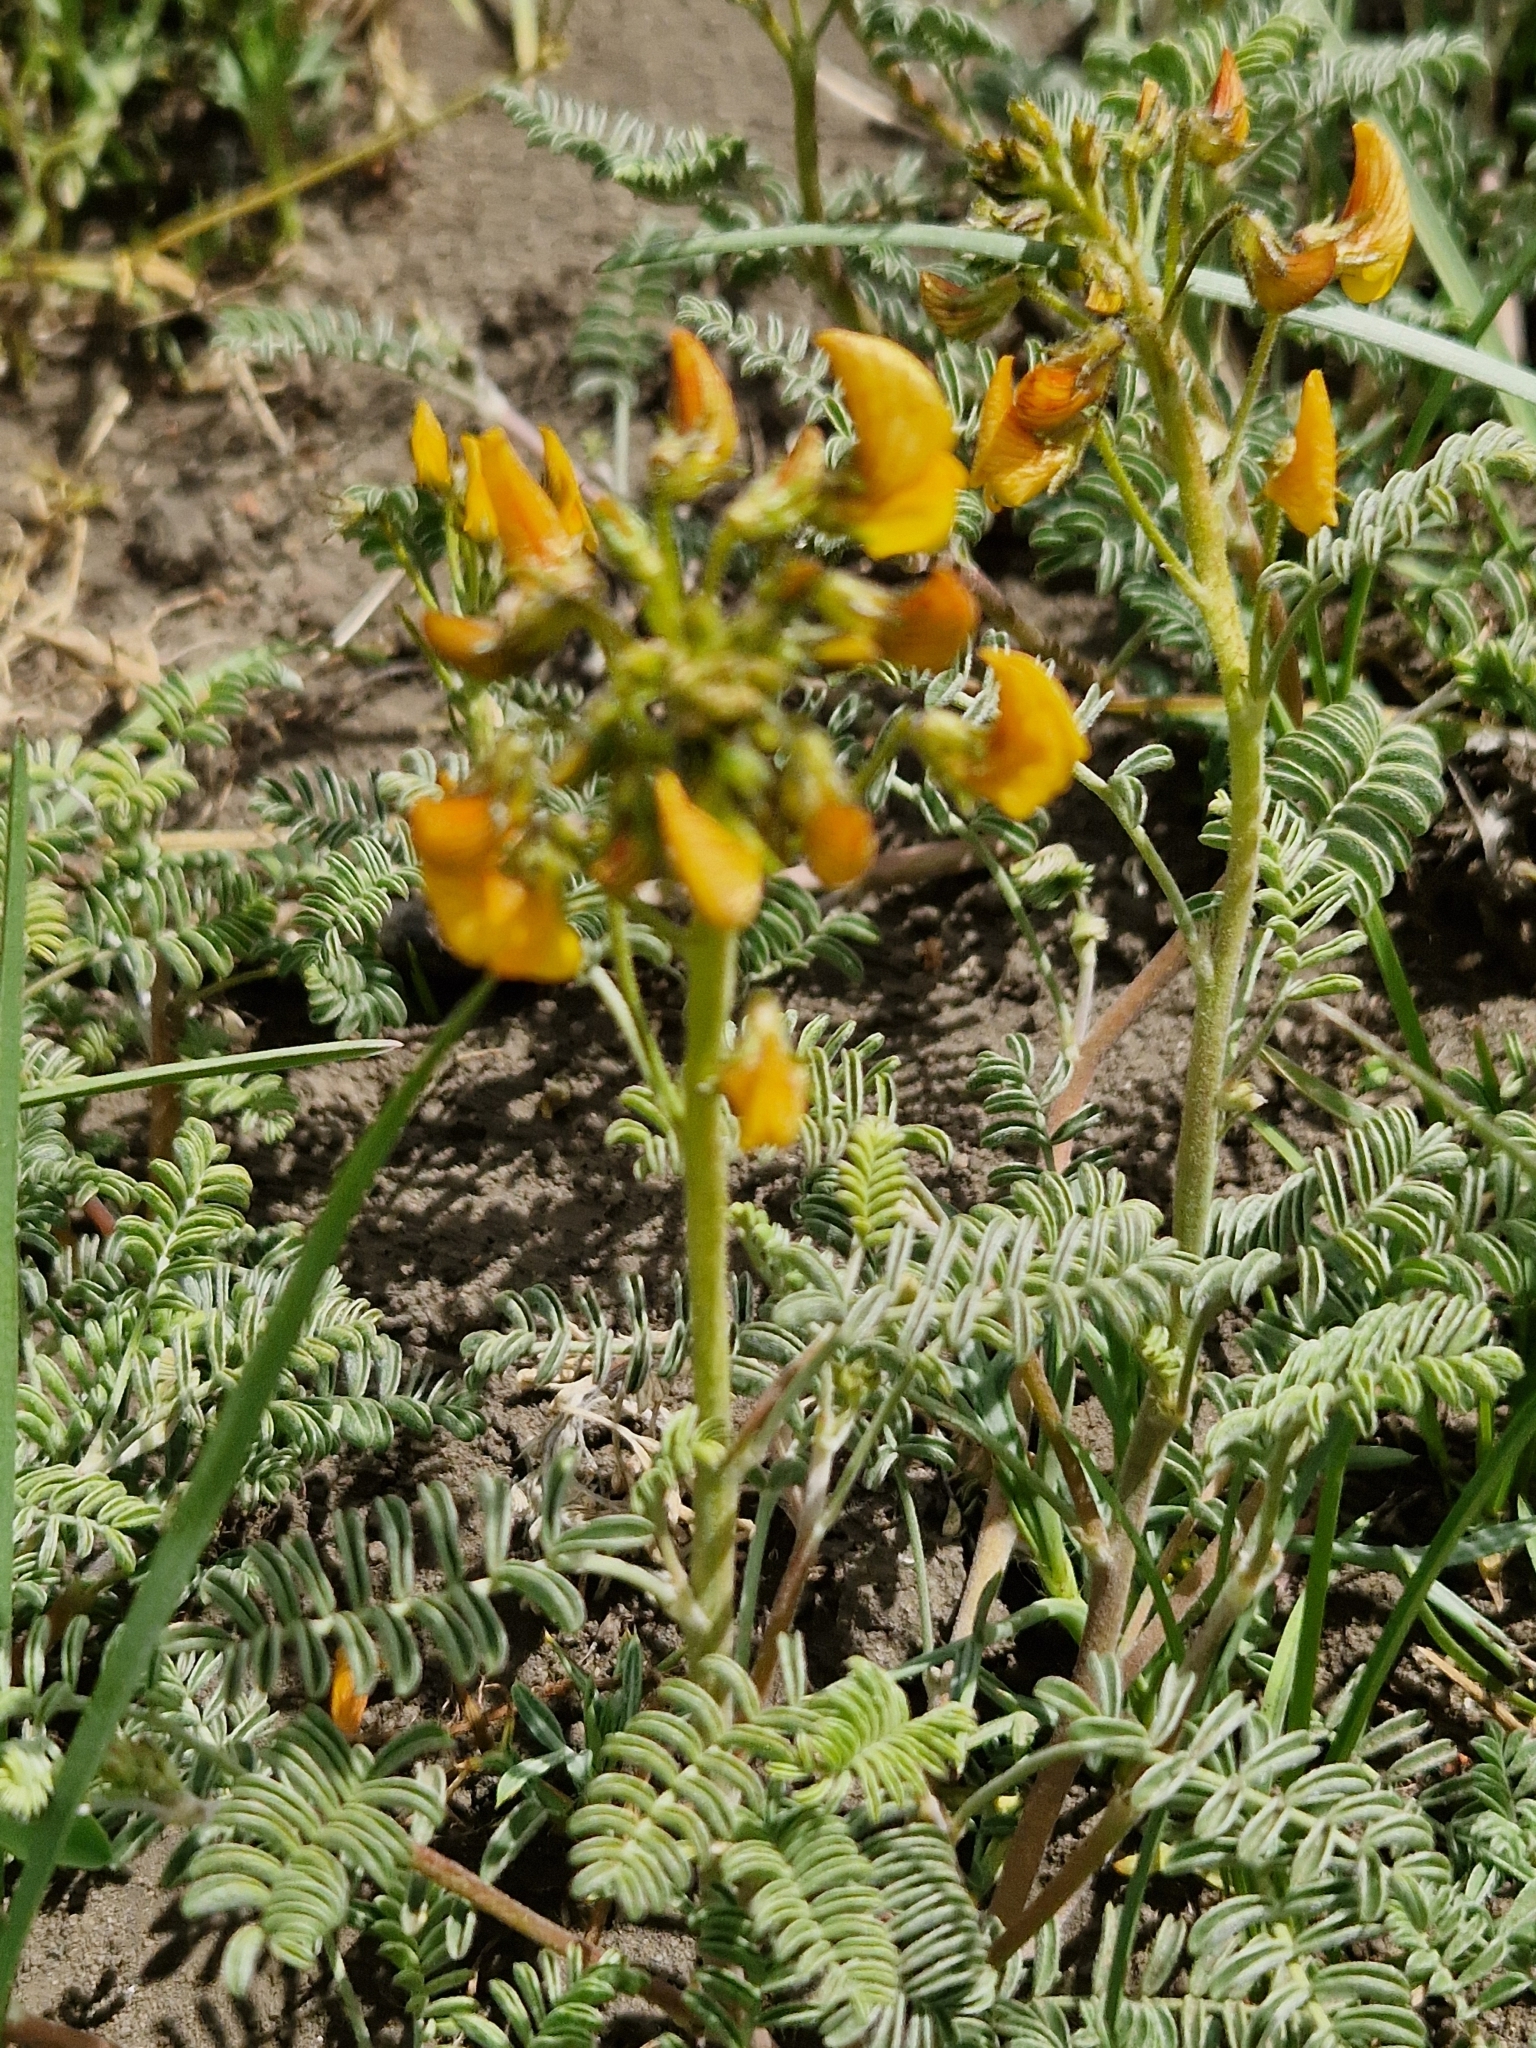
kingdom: Plantae
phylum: Tracheophyta
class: Magnoliopsida
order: Fabales
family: Fabaceae
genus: Adesmia
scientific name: Adesmia corymbosa
